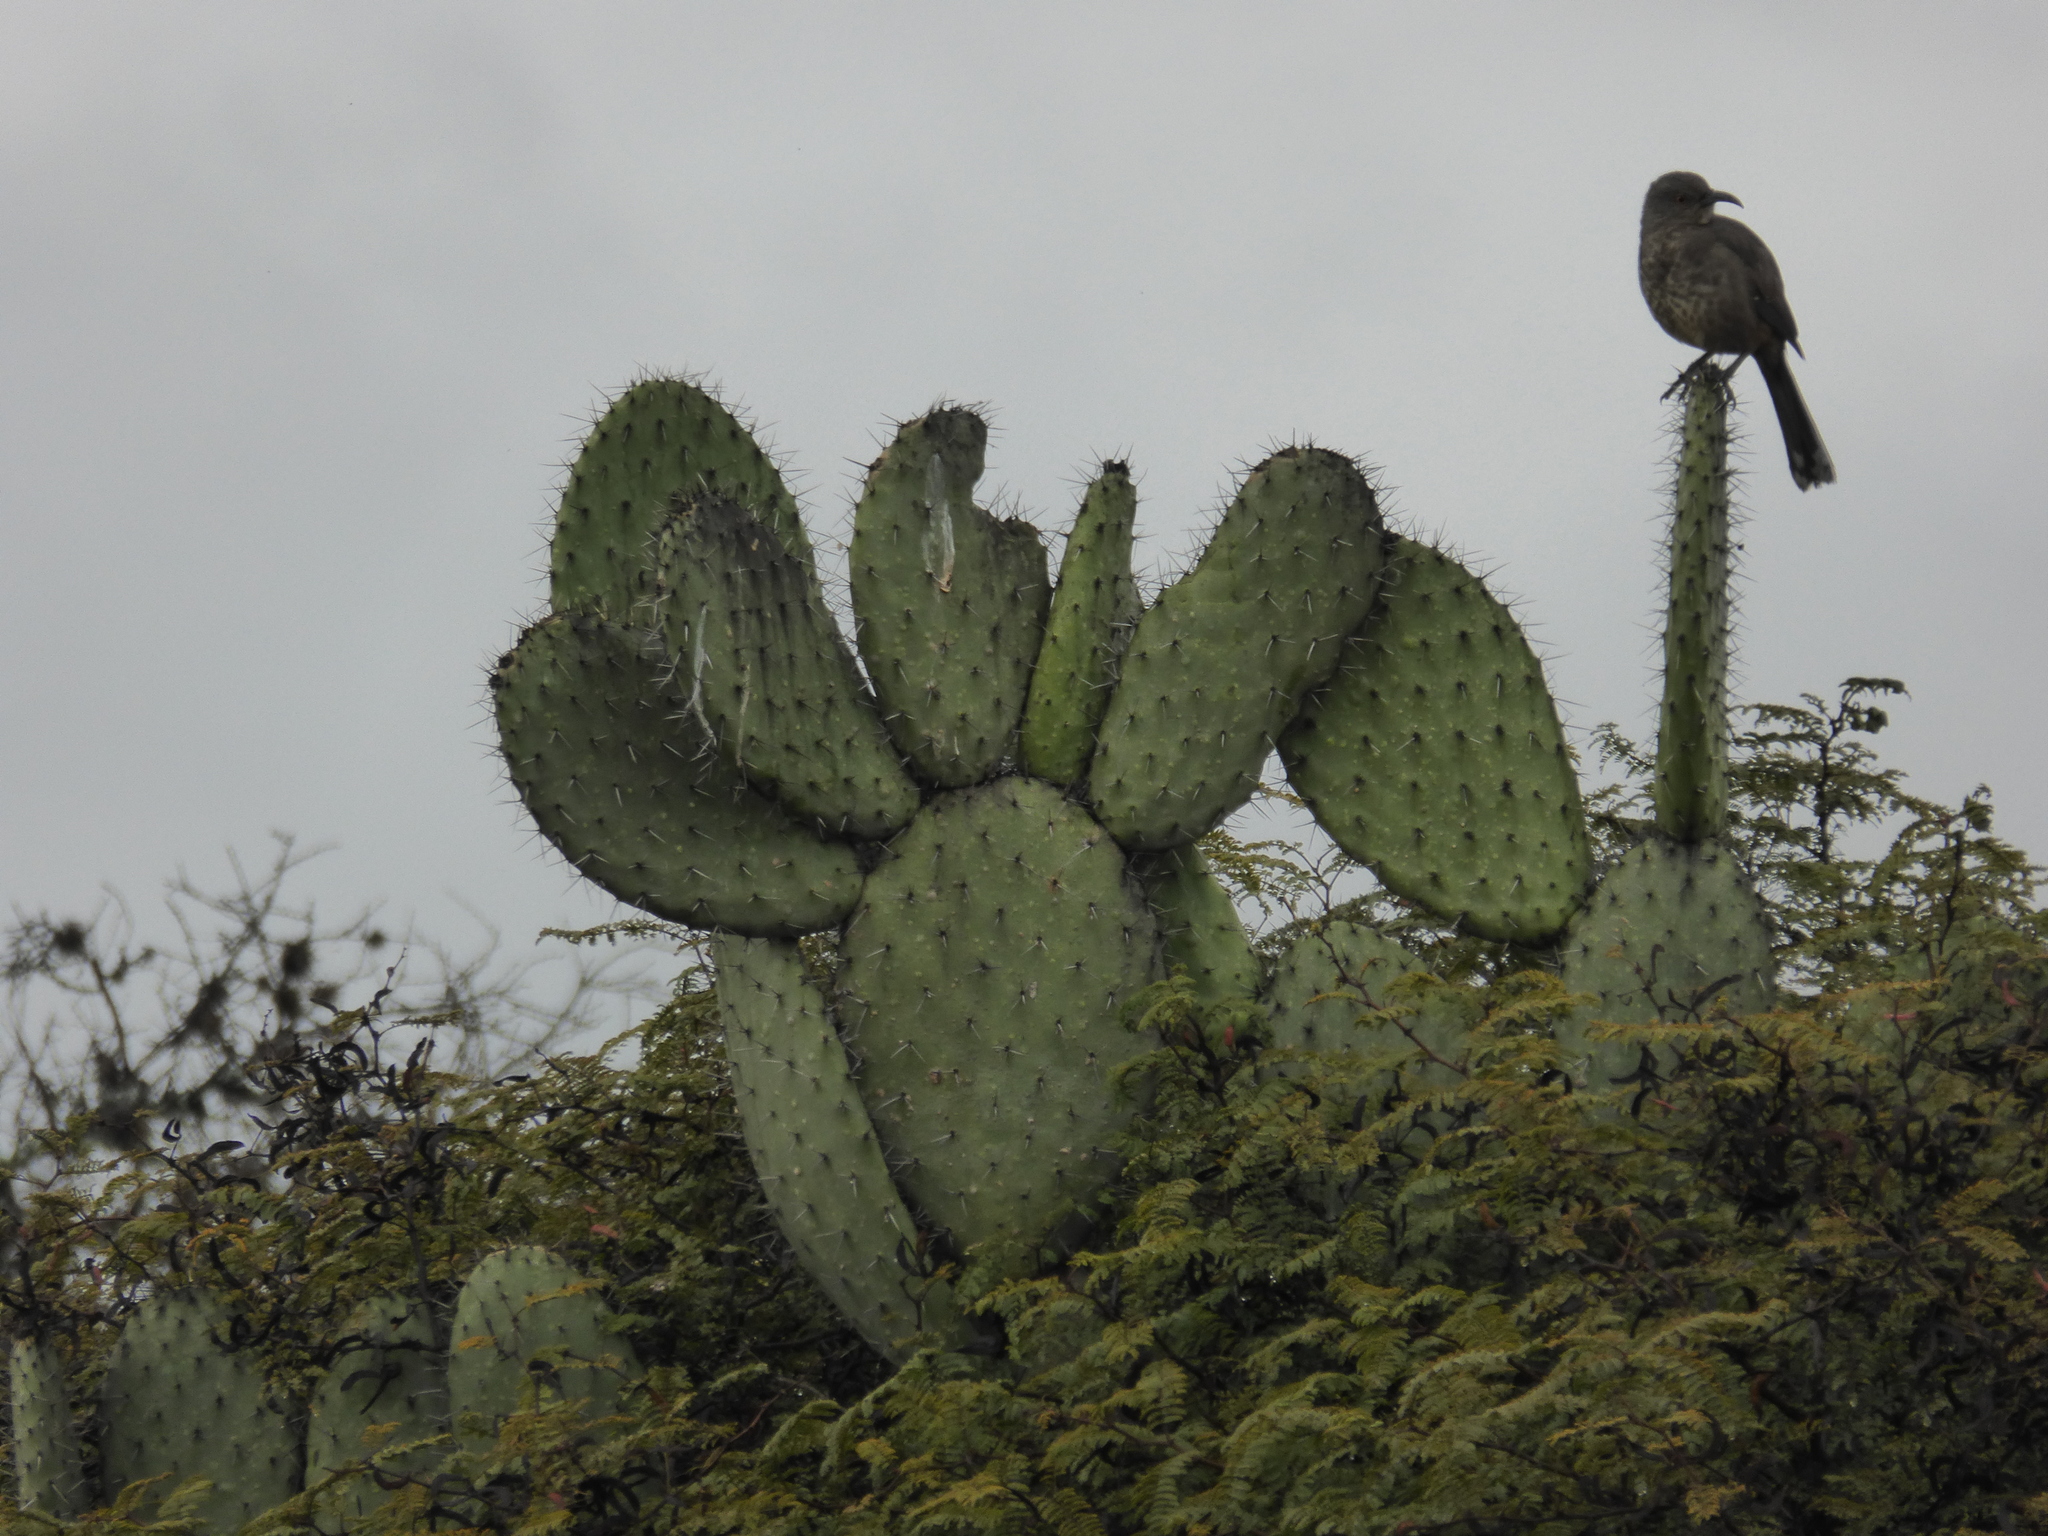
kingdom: Animalia
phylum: Chordata
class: Aves
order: Passeriformes
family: Mimidae
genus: Toxostoma
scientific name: Toxostoma curvirostre
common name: Curve-billed thrasher
